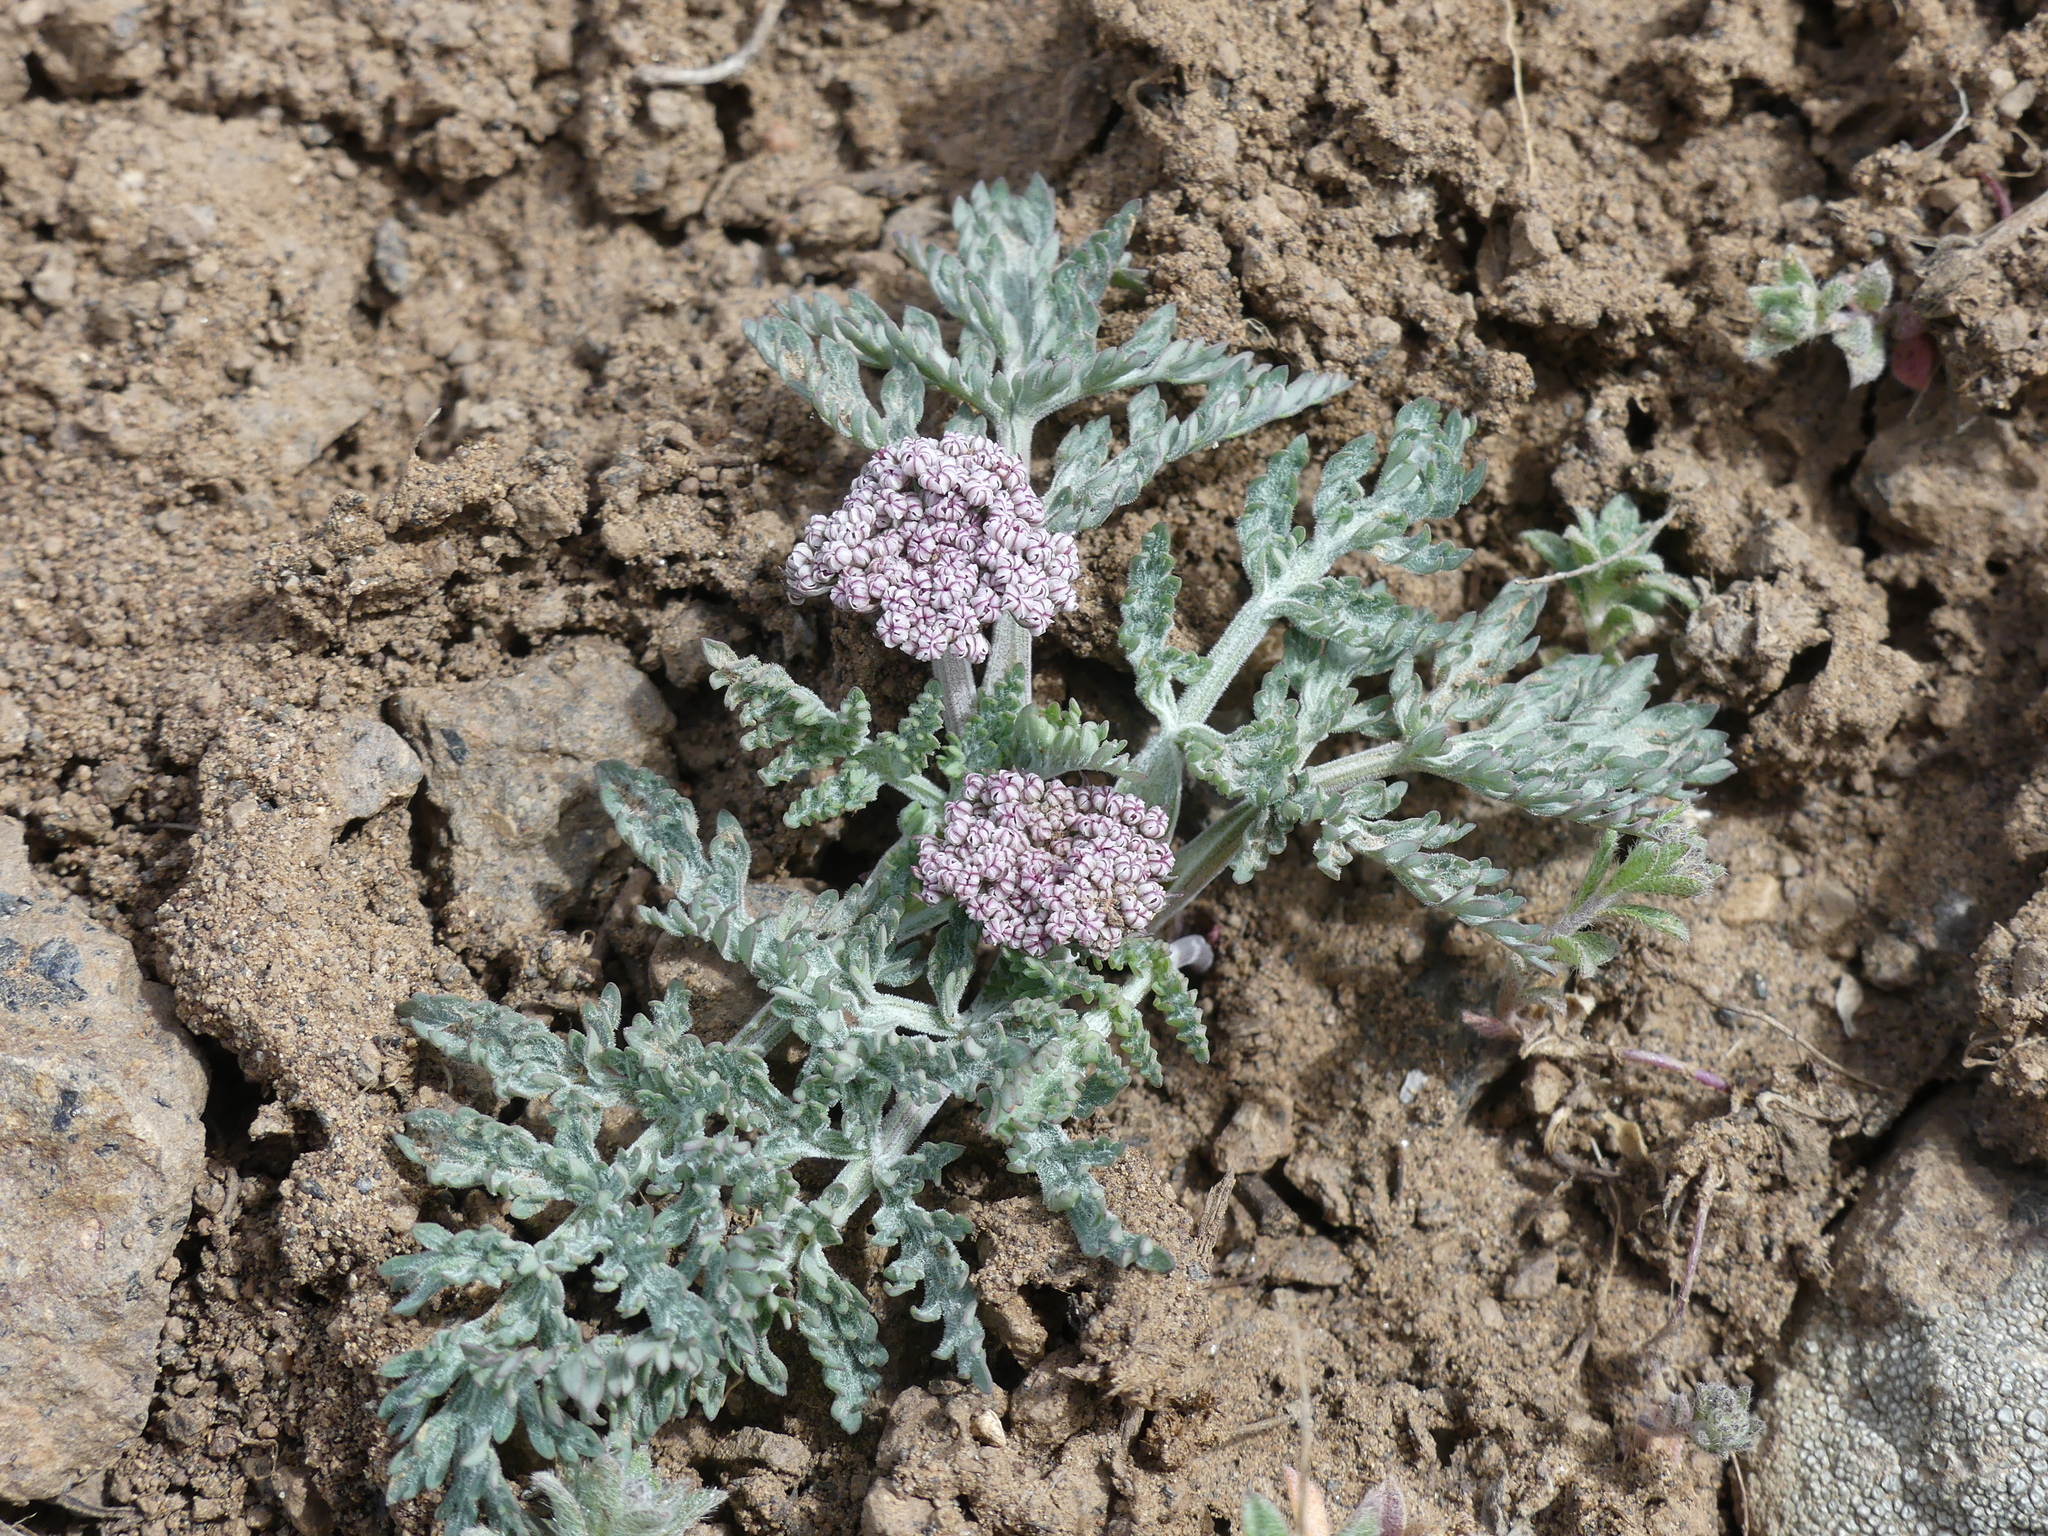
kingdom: Plantae
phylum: Tracheophyta
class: Magnoliopsida
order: Apiales
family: Apiaceae
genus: Lomatium
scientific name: Lomatium orientale
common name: Eastern cous
